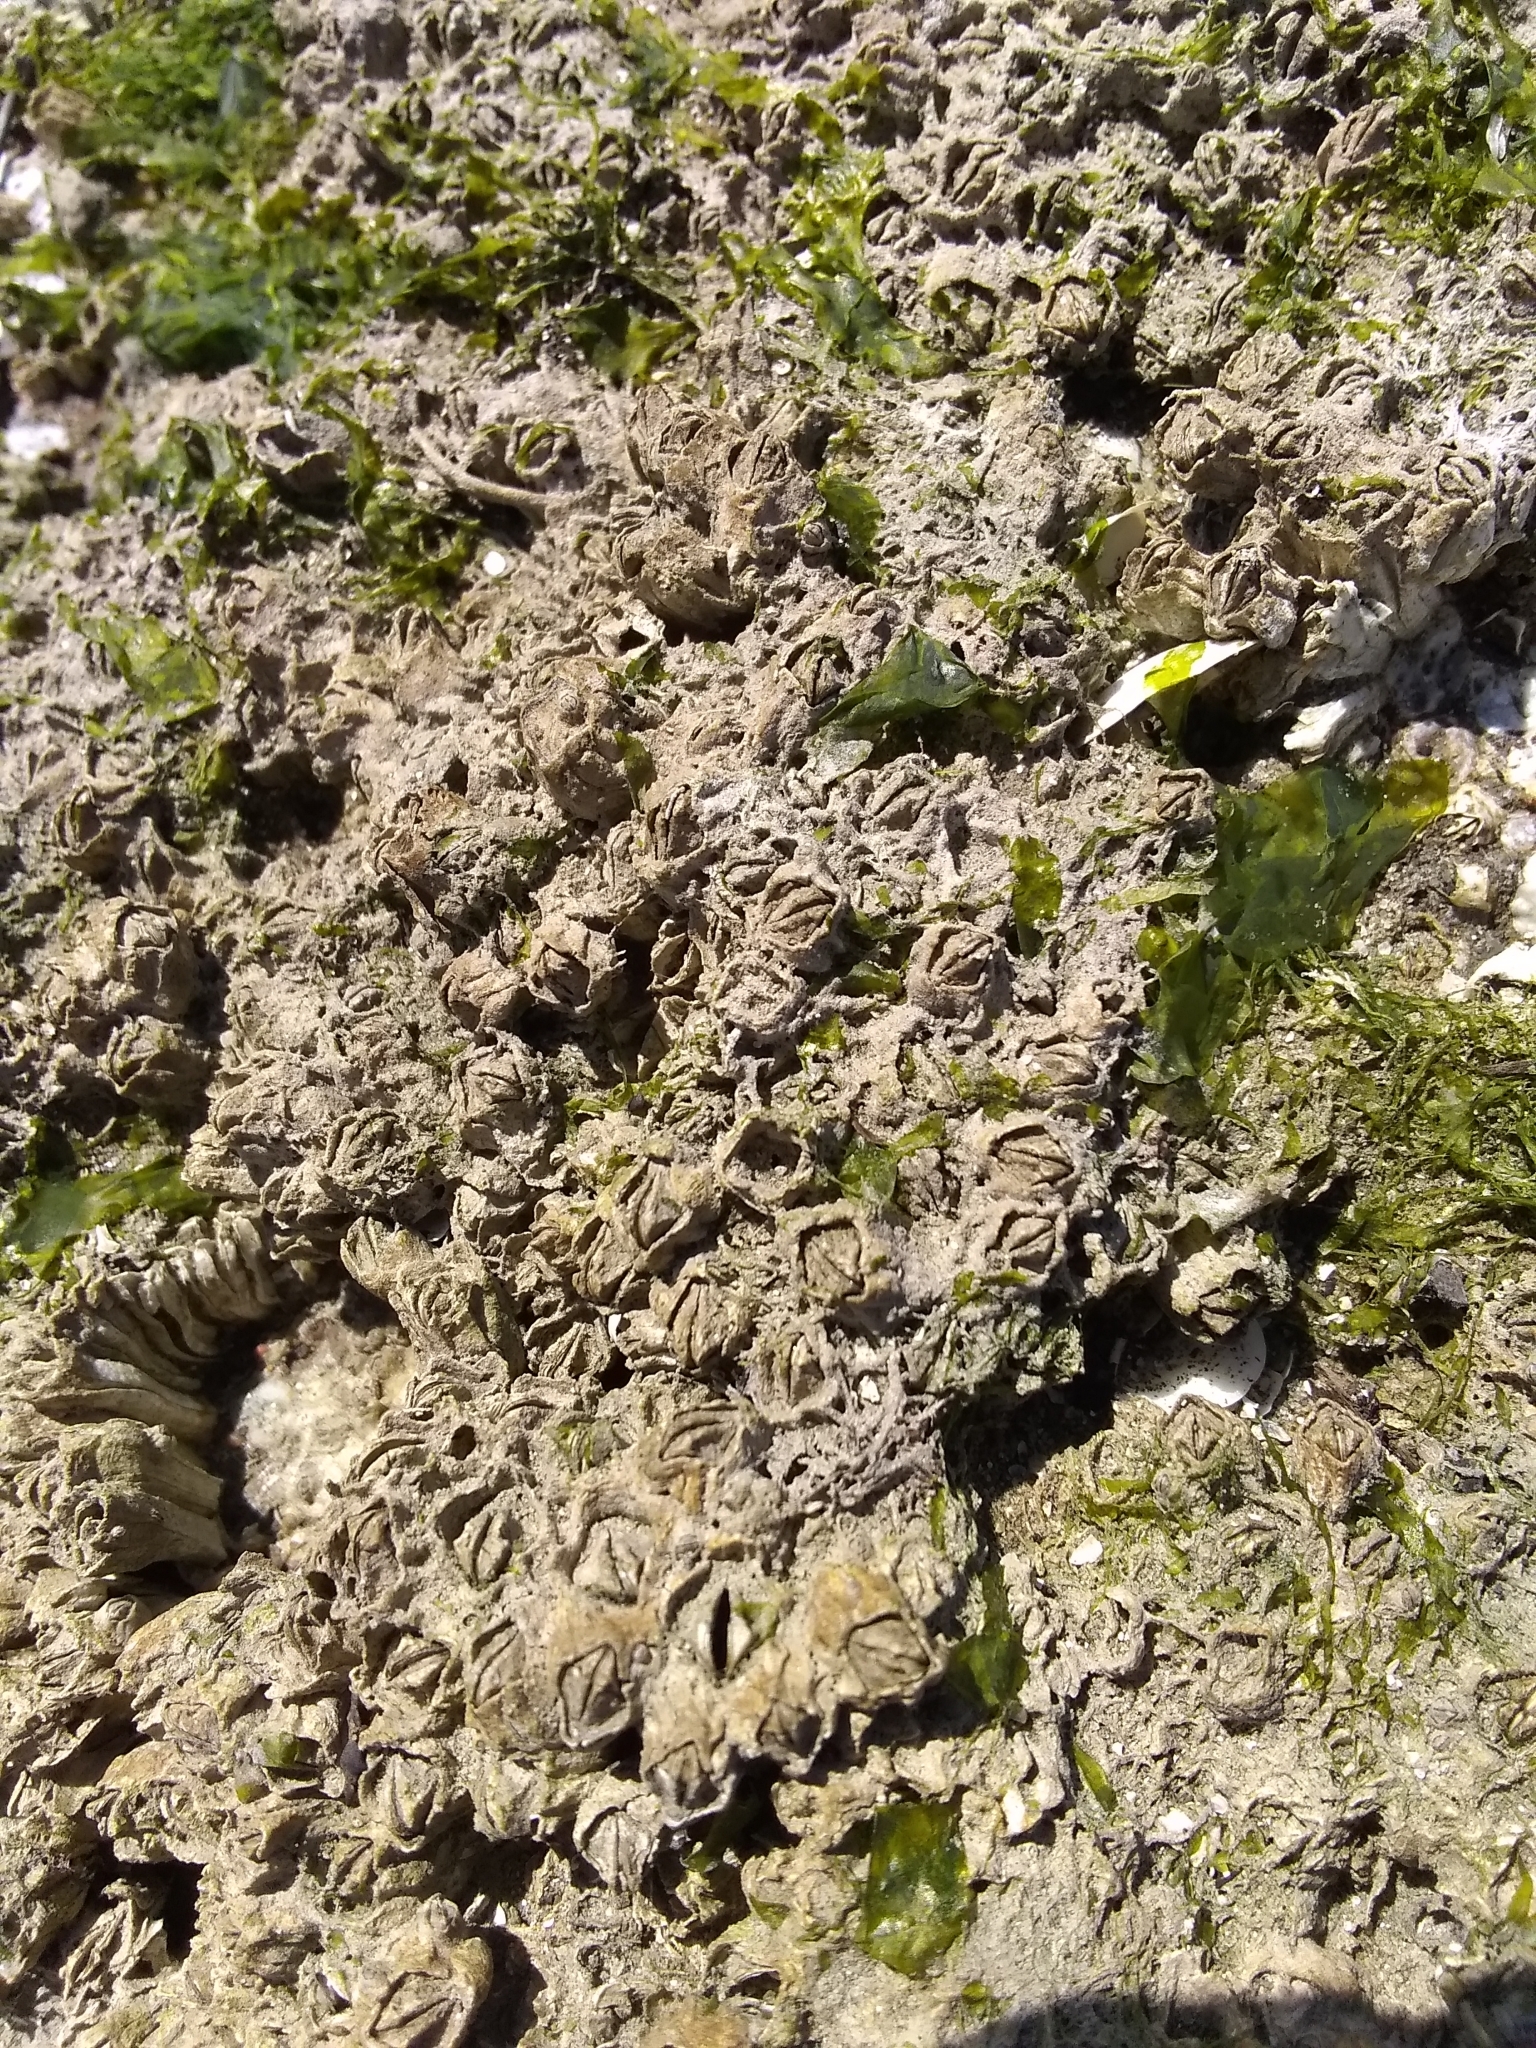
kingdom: Animalia
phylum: Arthropoda
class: Maxillopoda
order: Sessilia
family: Balanidae
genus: Balanus
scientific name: Balanus glandula
